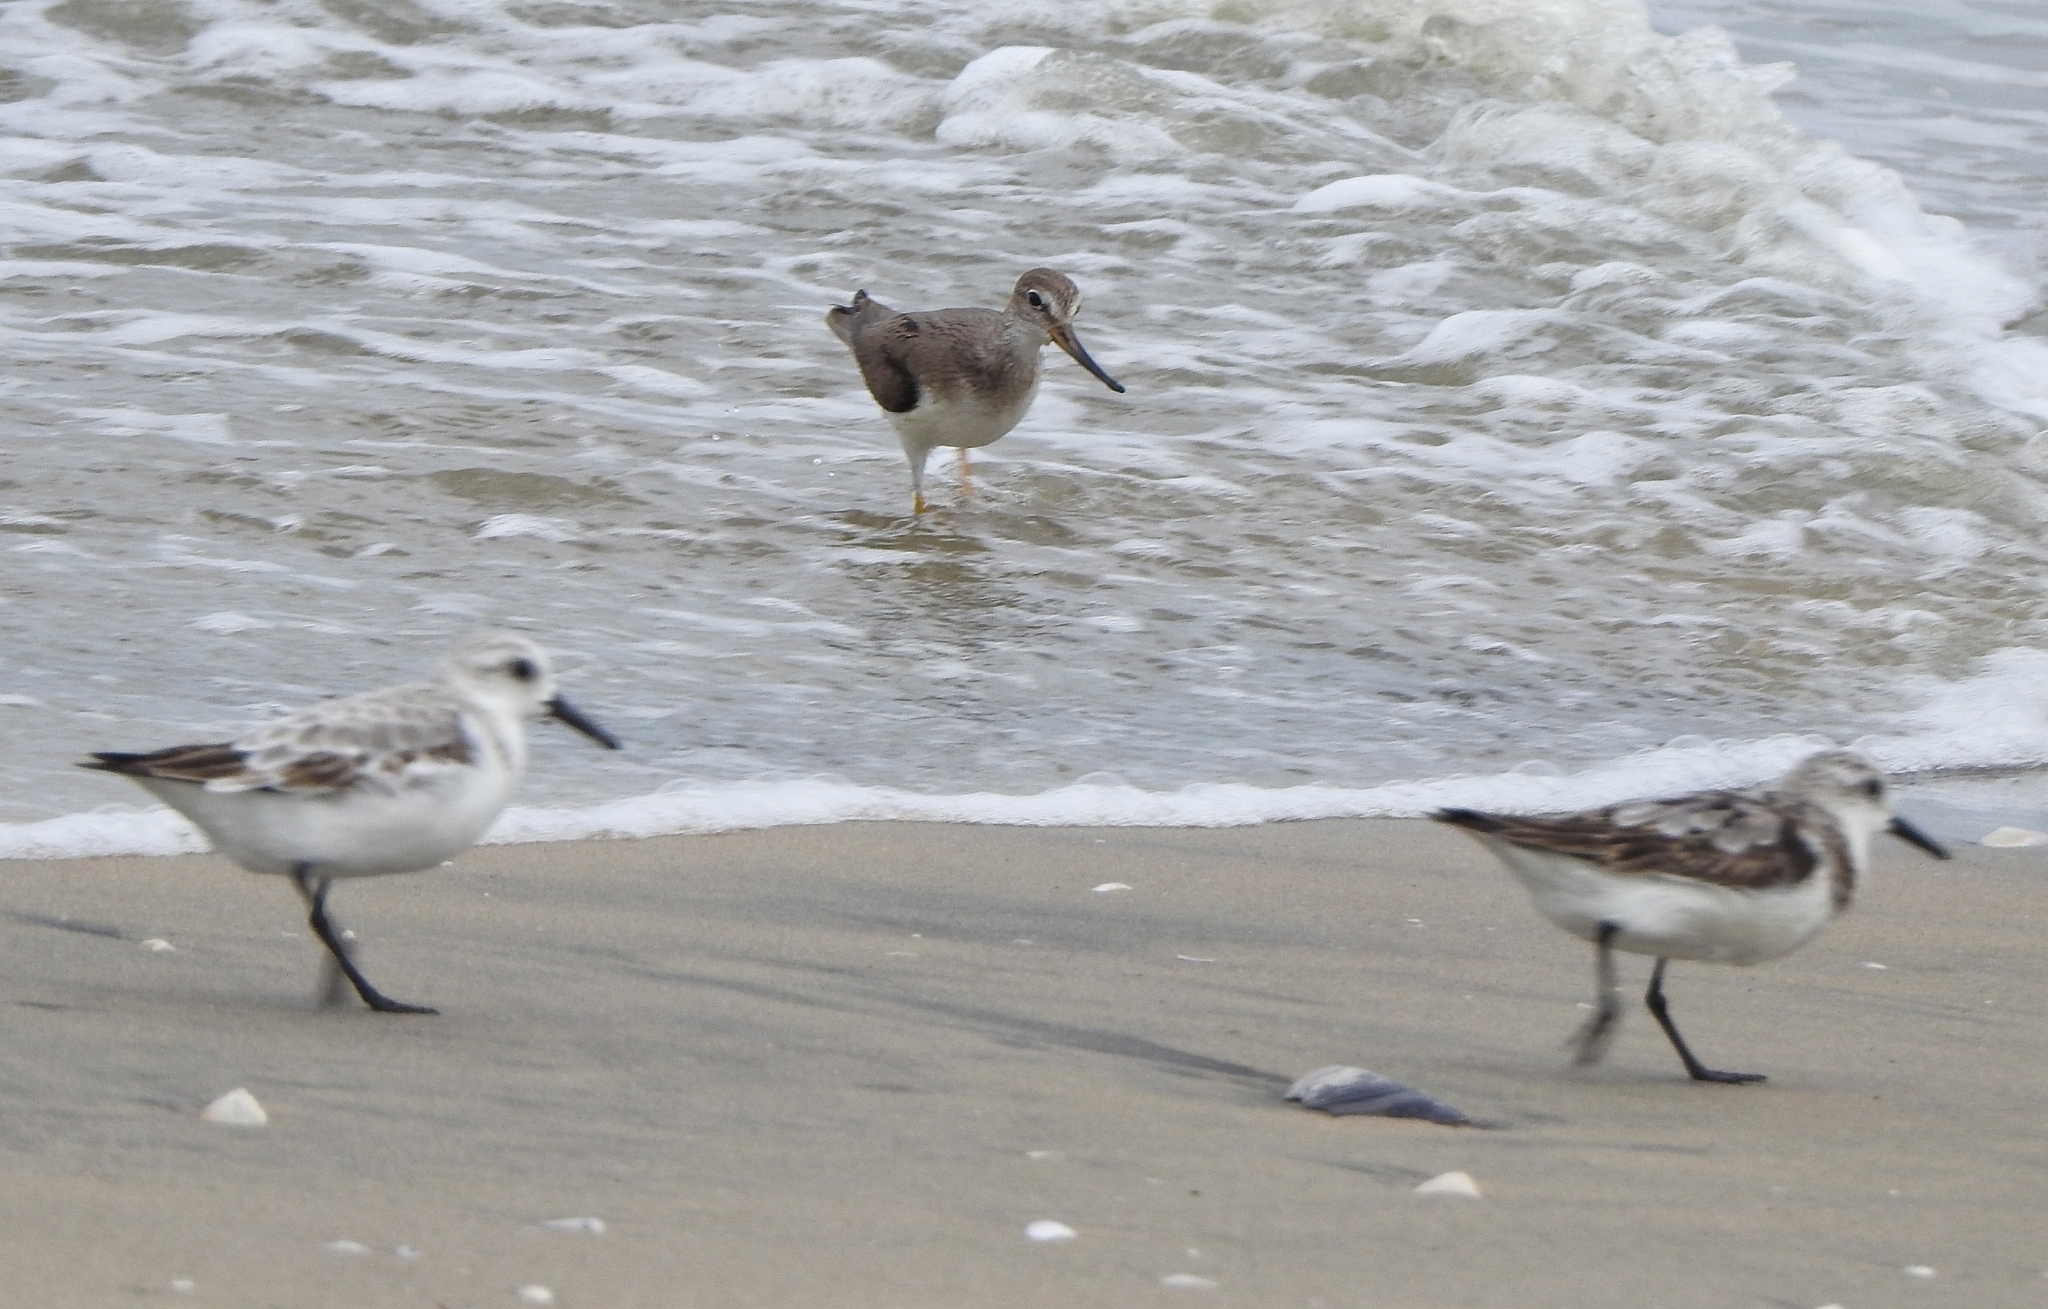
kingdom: Animalia
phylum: Chordata
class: Aves
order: Charadriiformes
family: Scolopacidae
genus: Xenus
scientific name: Xenus cinereus
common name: Terek sandpiper
